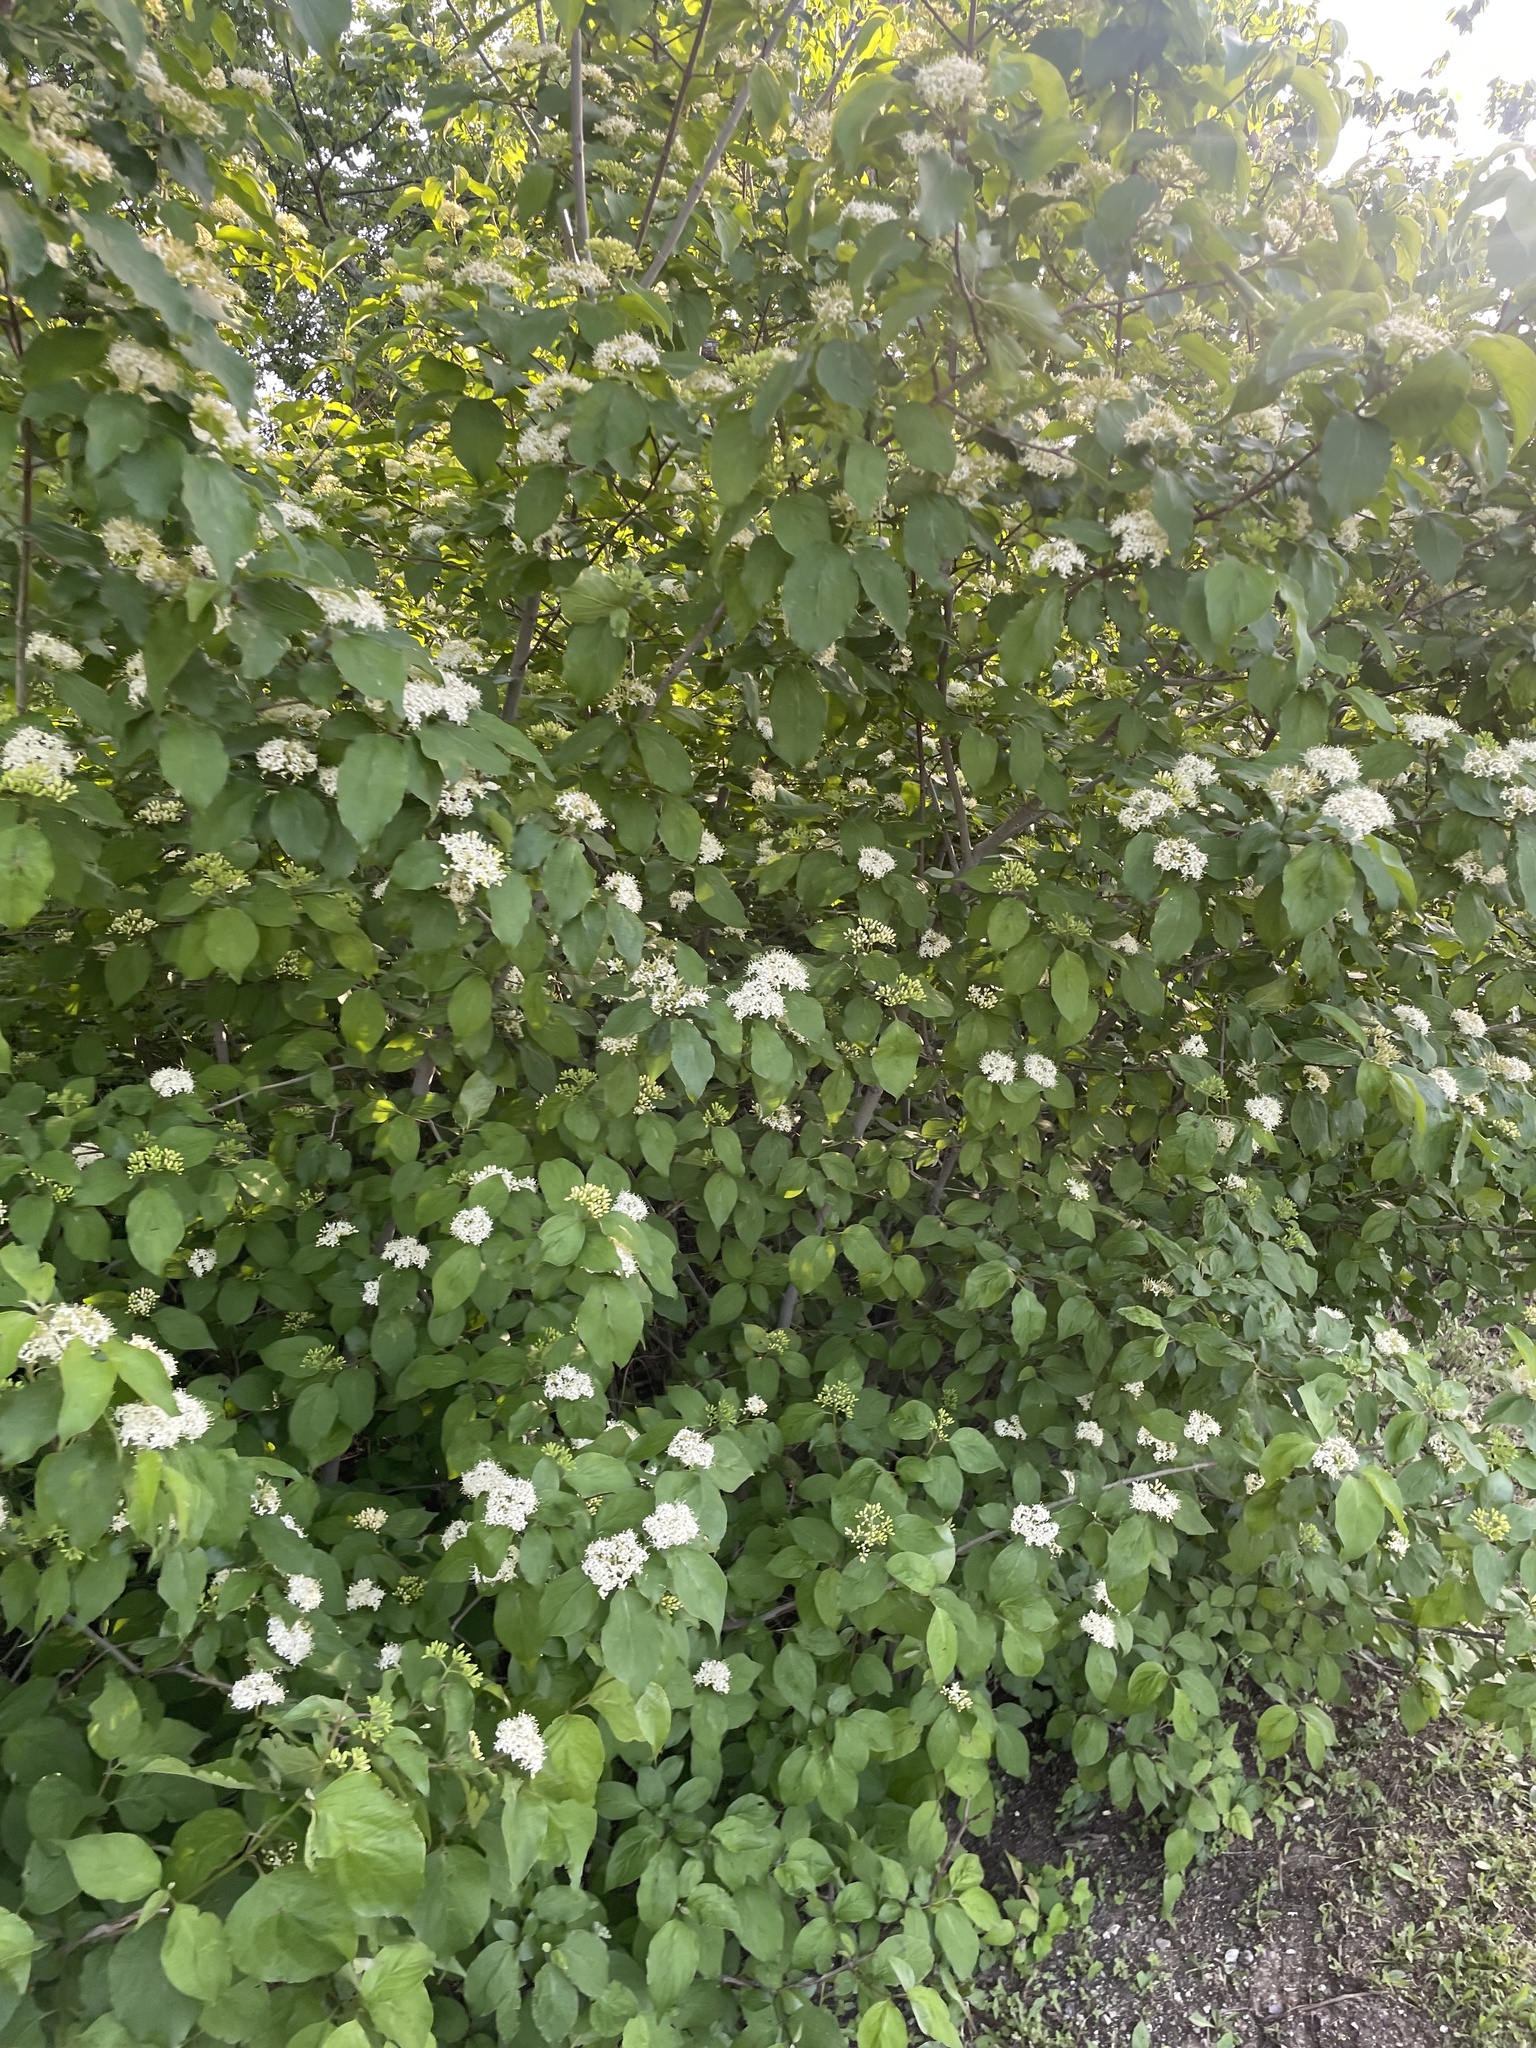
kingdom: Plantae
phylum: Tracheophyta
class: Magnoliopsida
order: Cornales
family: Cornaceae
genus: Cornus
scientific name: Cornus drummondii
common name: Rough-leaf dogwood
